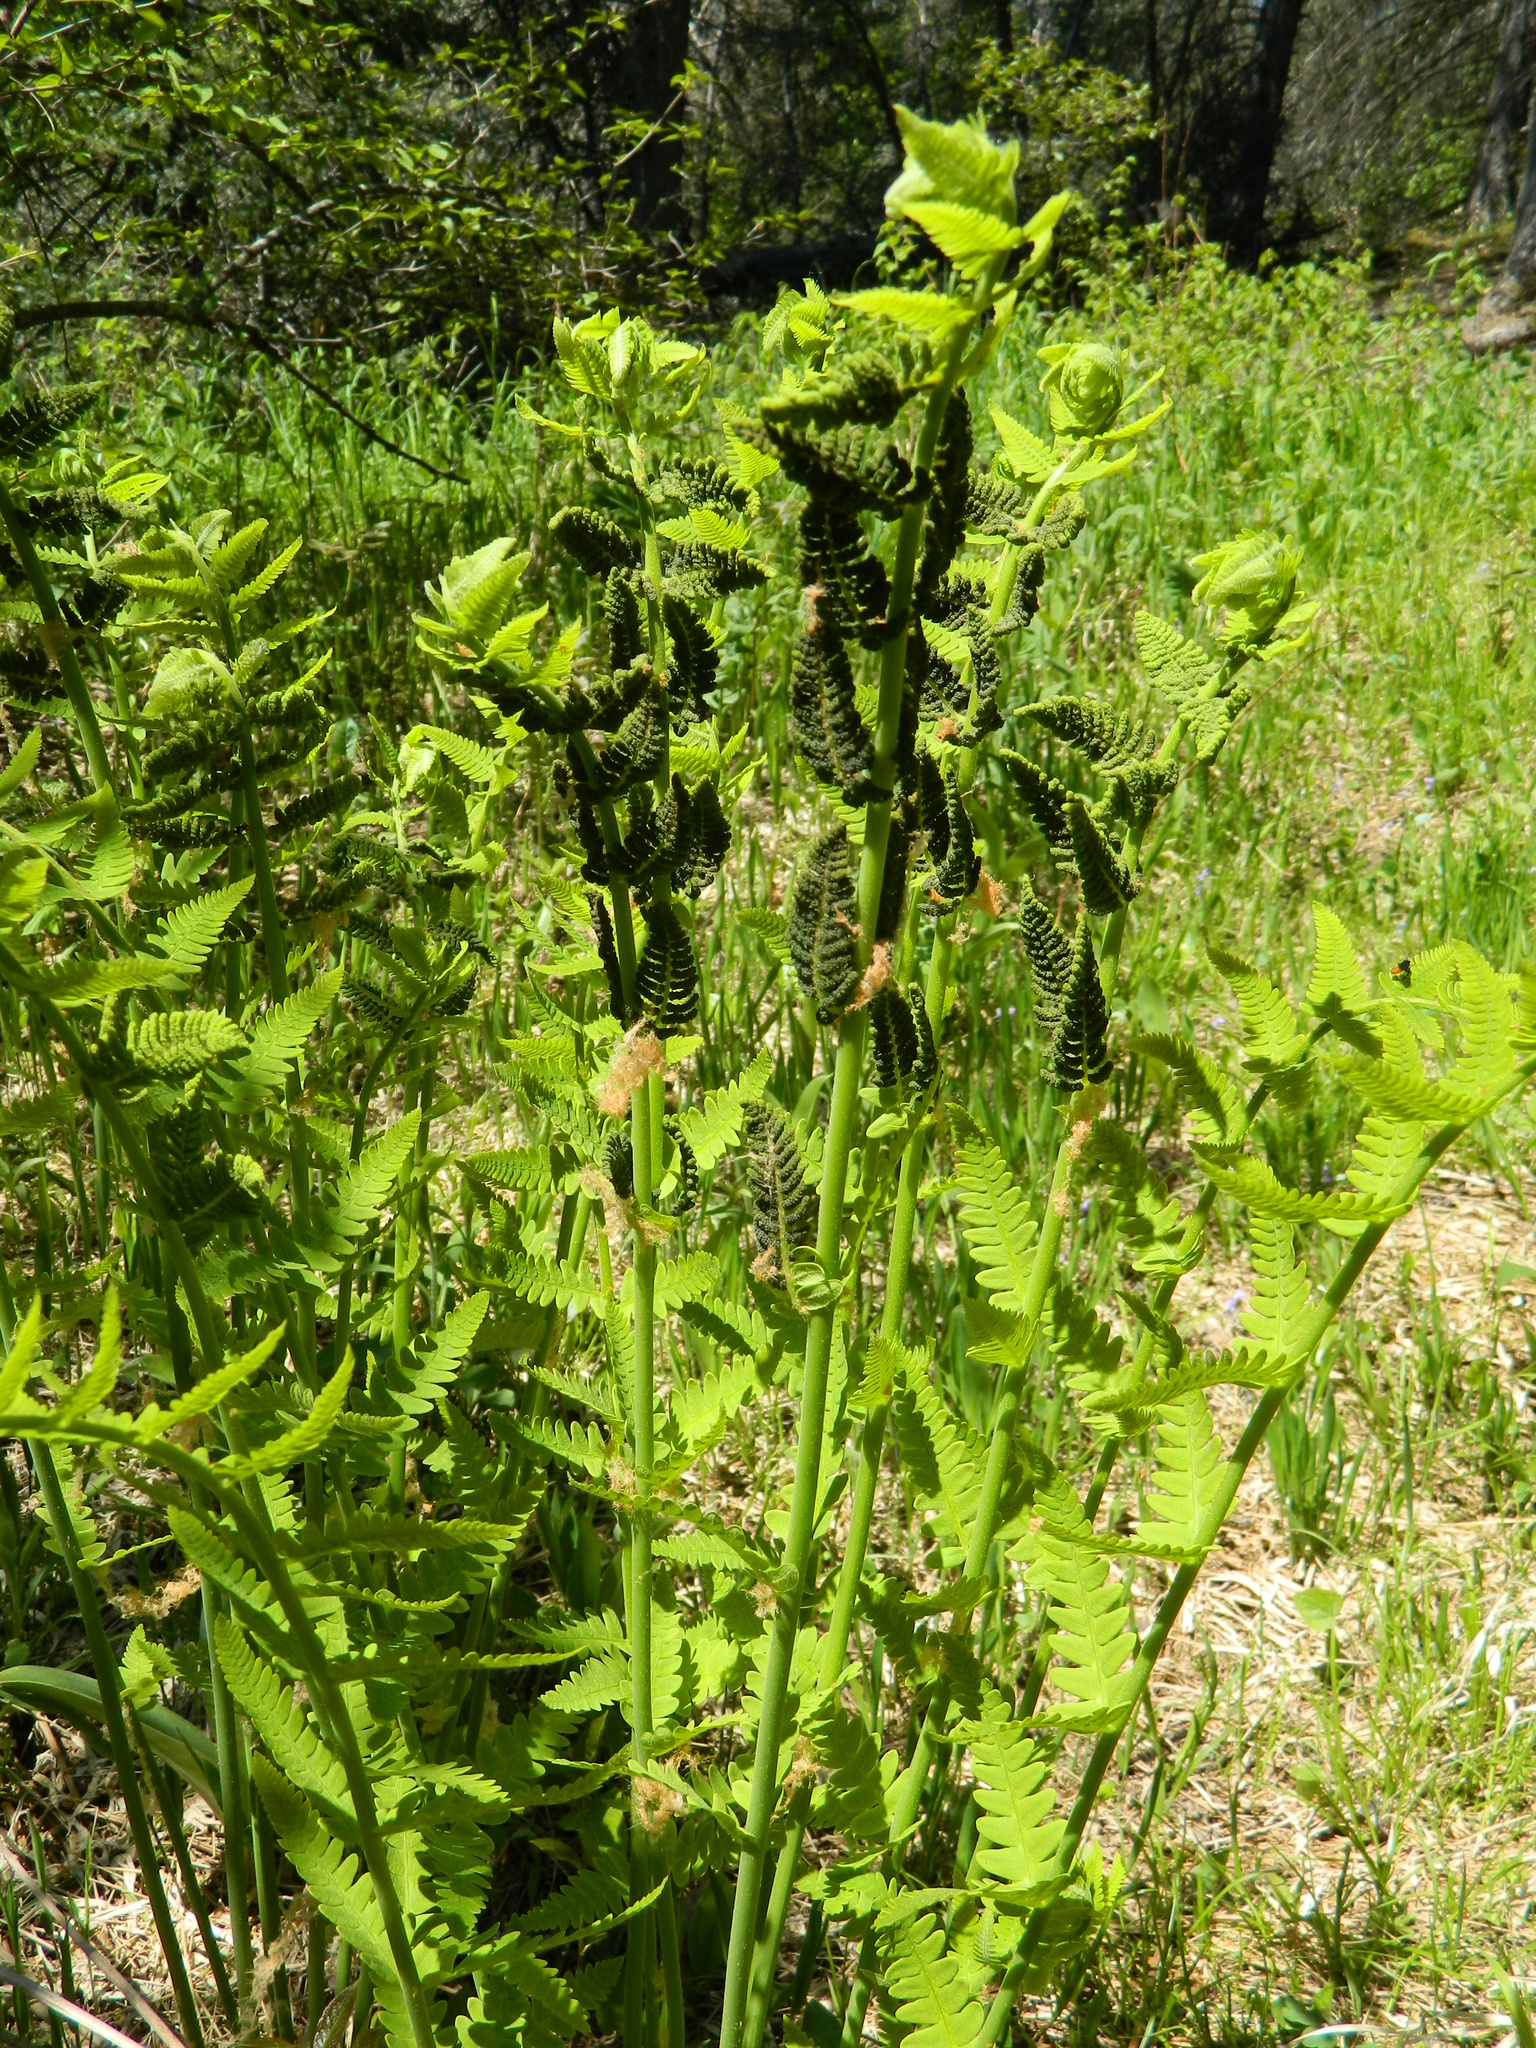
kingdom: Plantae
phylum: Tracheophyta
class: Polypodiopsida
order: Osmundales
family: Osmundaceae
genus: Claytosmunda
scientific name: Claytosmunda claytoniana
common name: Clayton's fern
